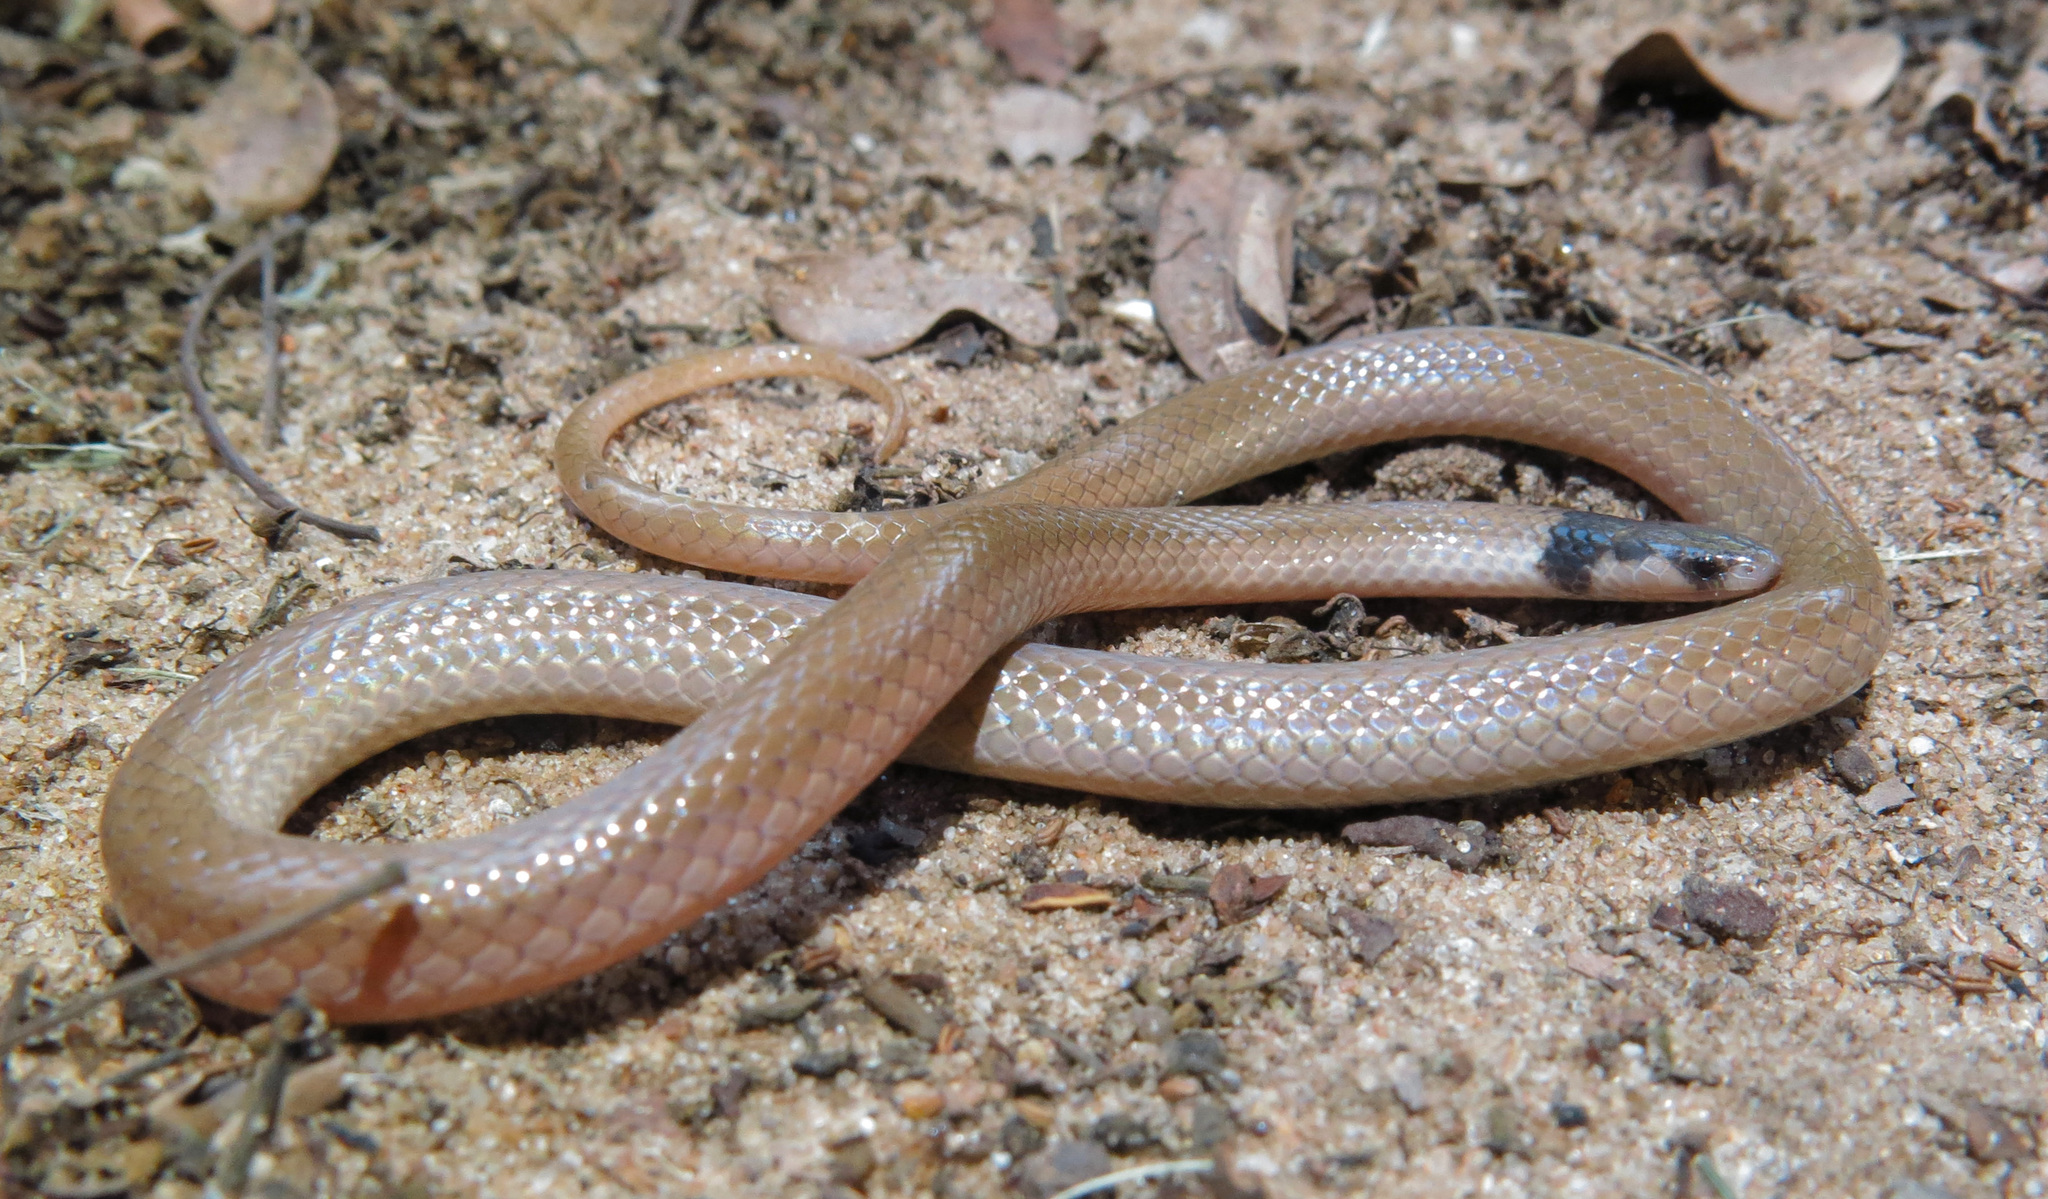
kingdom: Animalia
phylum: Chordata
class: Squamata
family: Atractaspididae
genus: Aparallactus
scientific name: Aparallactus capensis
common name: Cape centipede eater
